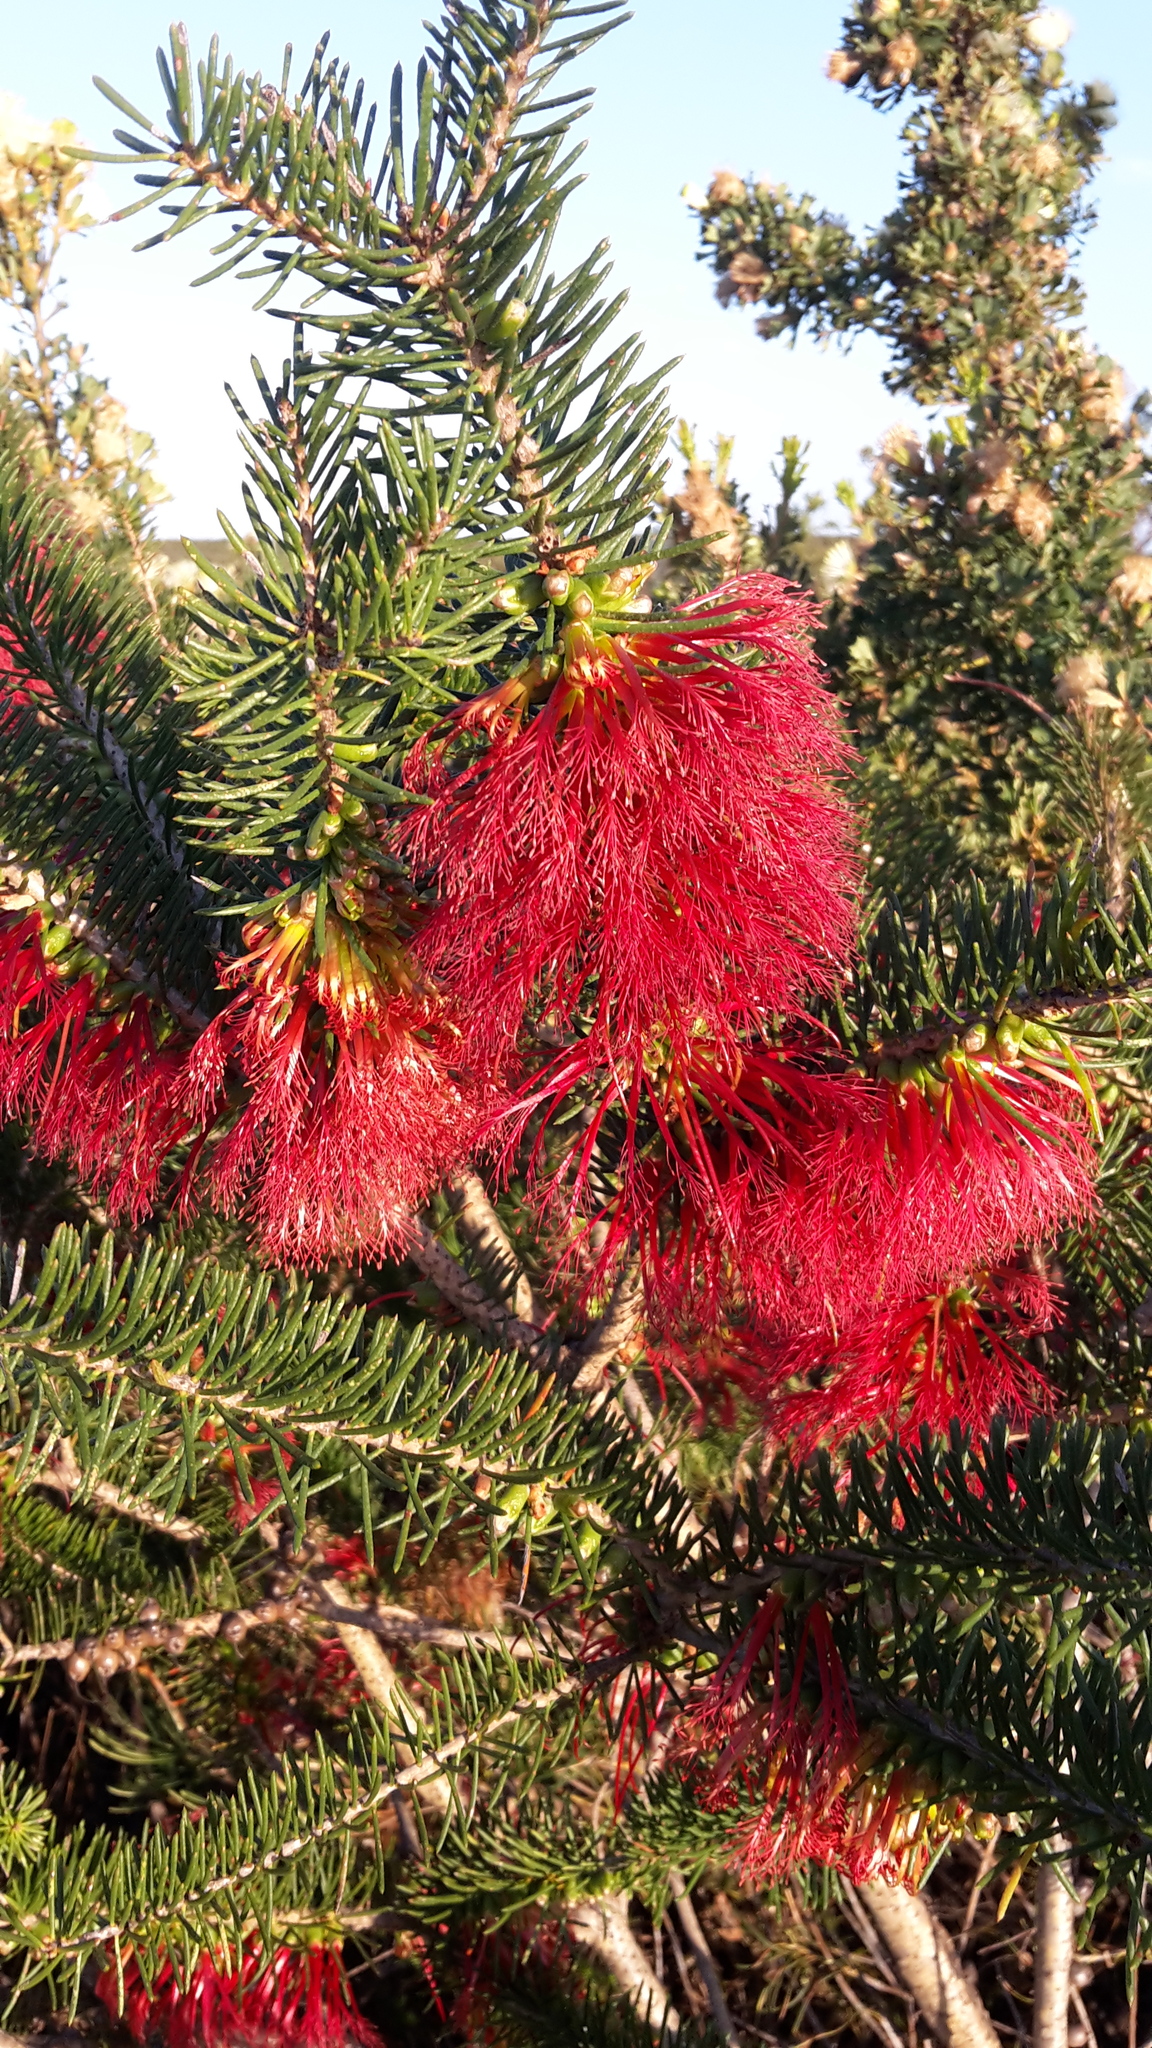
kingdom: Plantae
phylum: Tracheophyta
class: Magnoliopsida
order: Myrtales
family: Myrtaceae
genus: Melaleuca
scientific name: Melaleuca quadrifida
